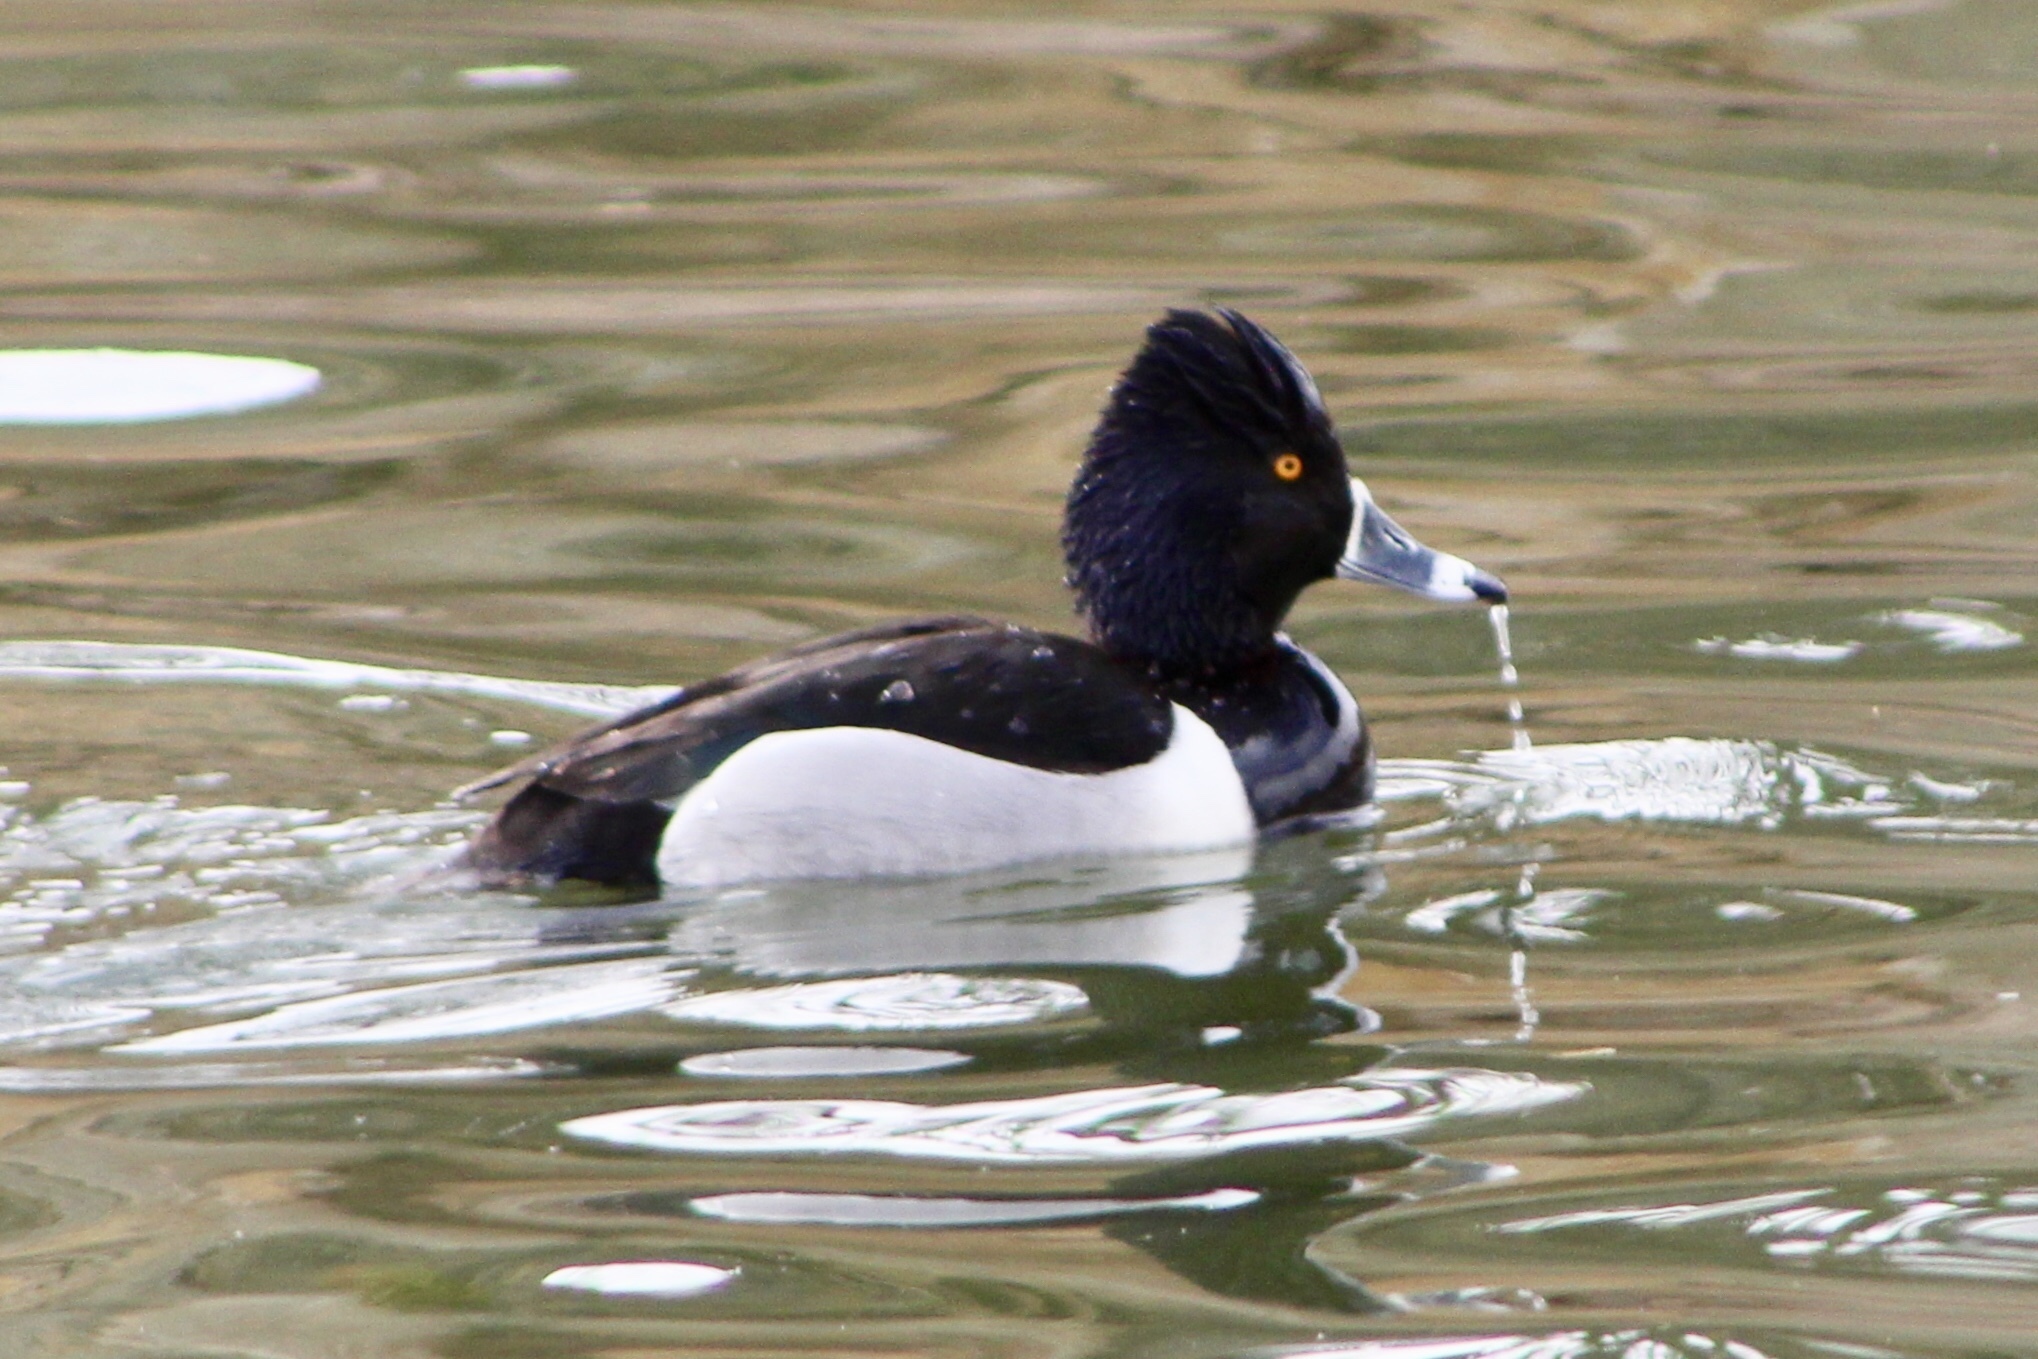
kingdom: Animalia
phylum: Chordata
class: Aves
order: Anseriformes
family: Anatidae
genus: Aythya
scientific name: Aythya collaris
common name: Ring-necked duck
